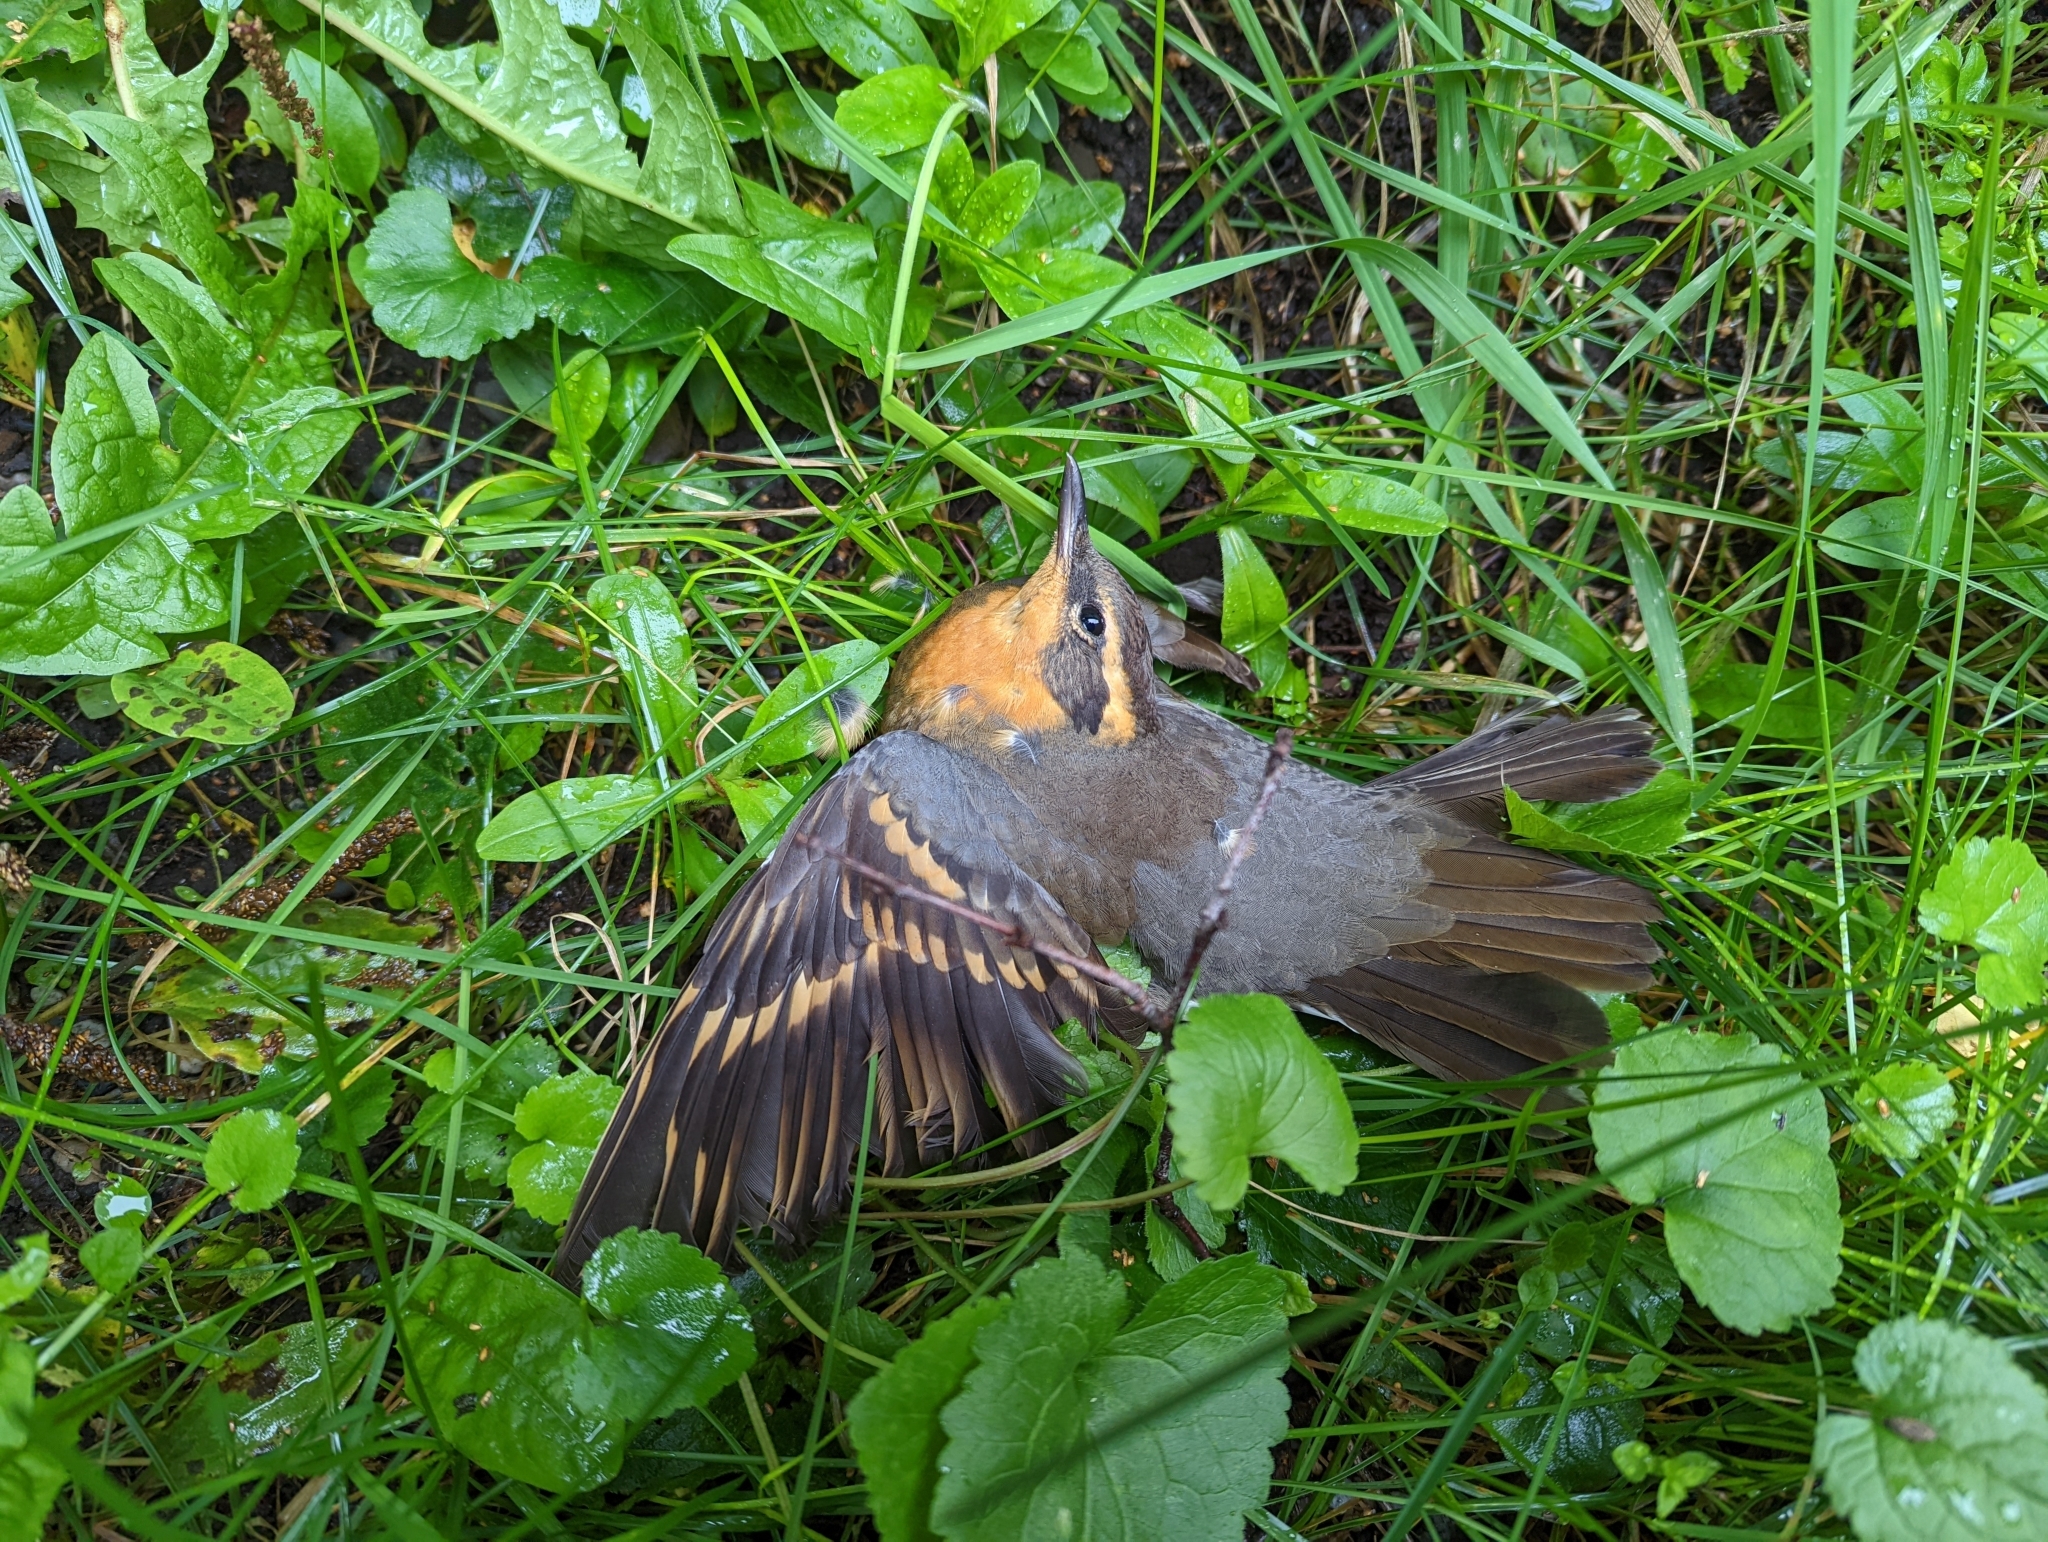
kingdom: Animalia
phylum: Chordata
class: Aves
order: Passeriformes
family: Turdidae
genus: Ixoreus
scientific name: Ixoreus naevius
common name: Varied thrush
